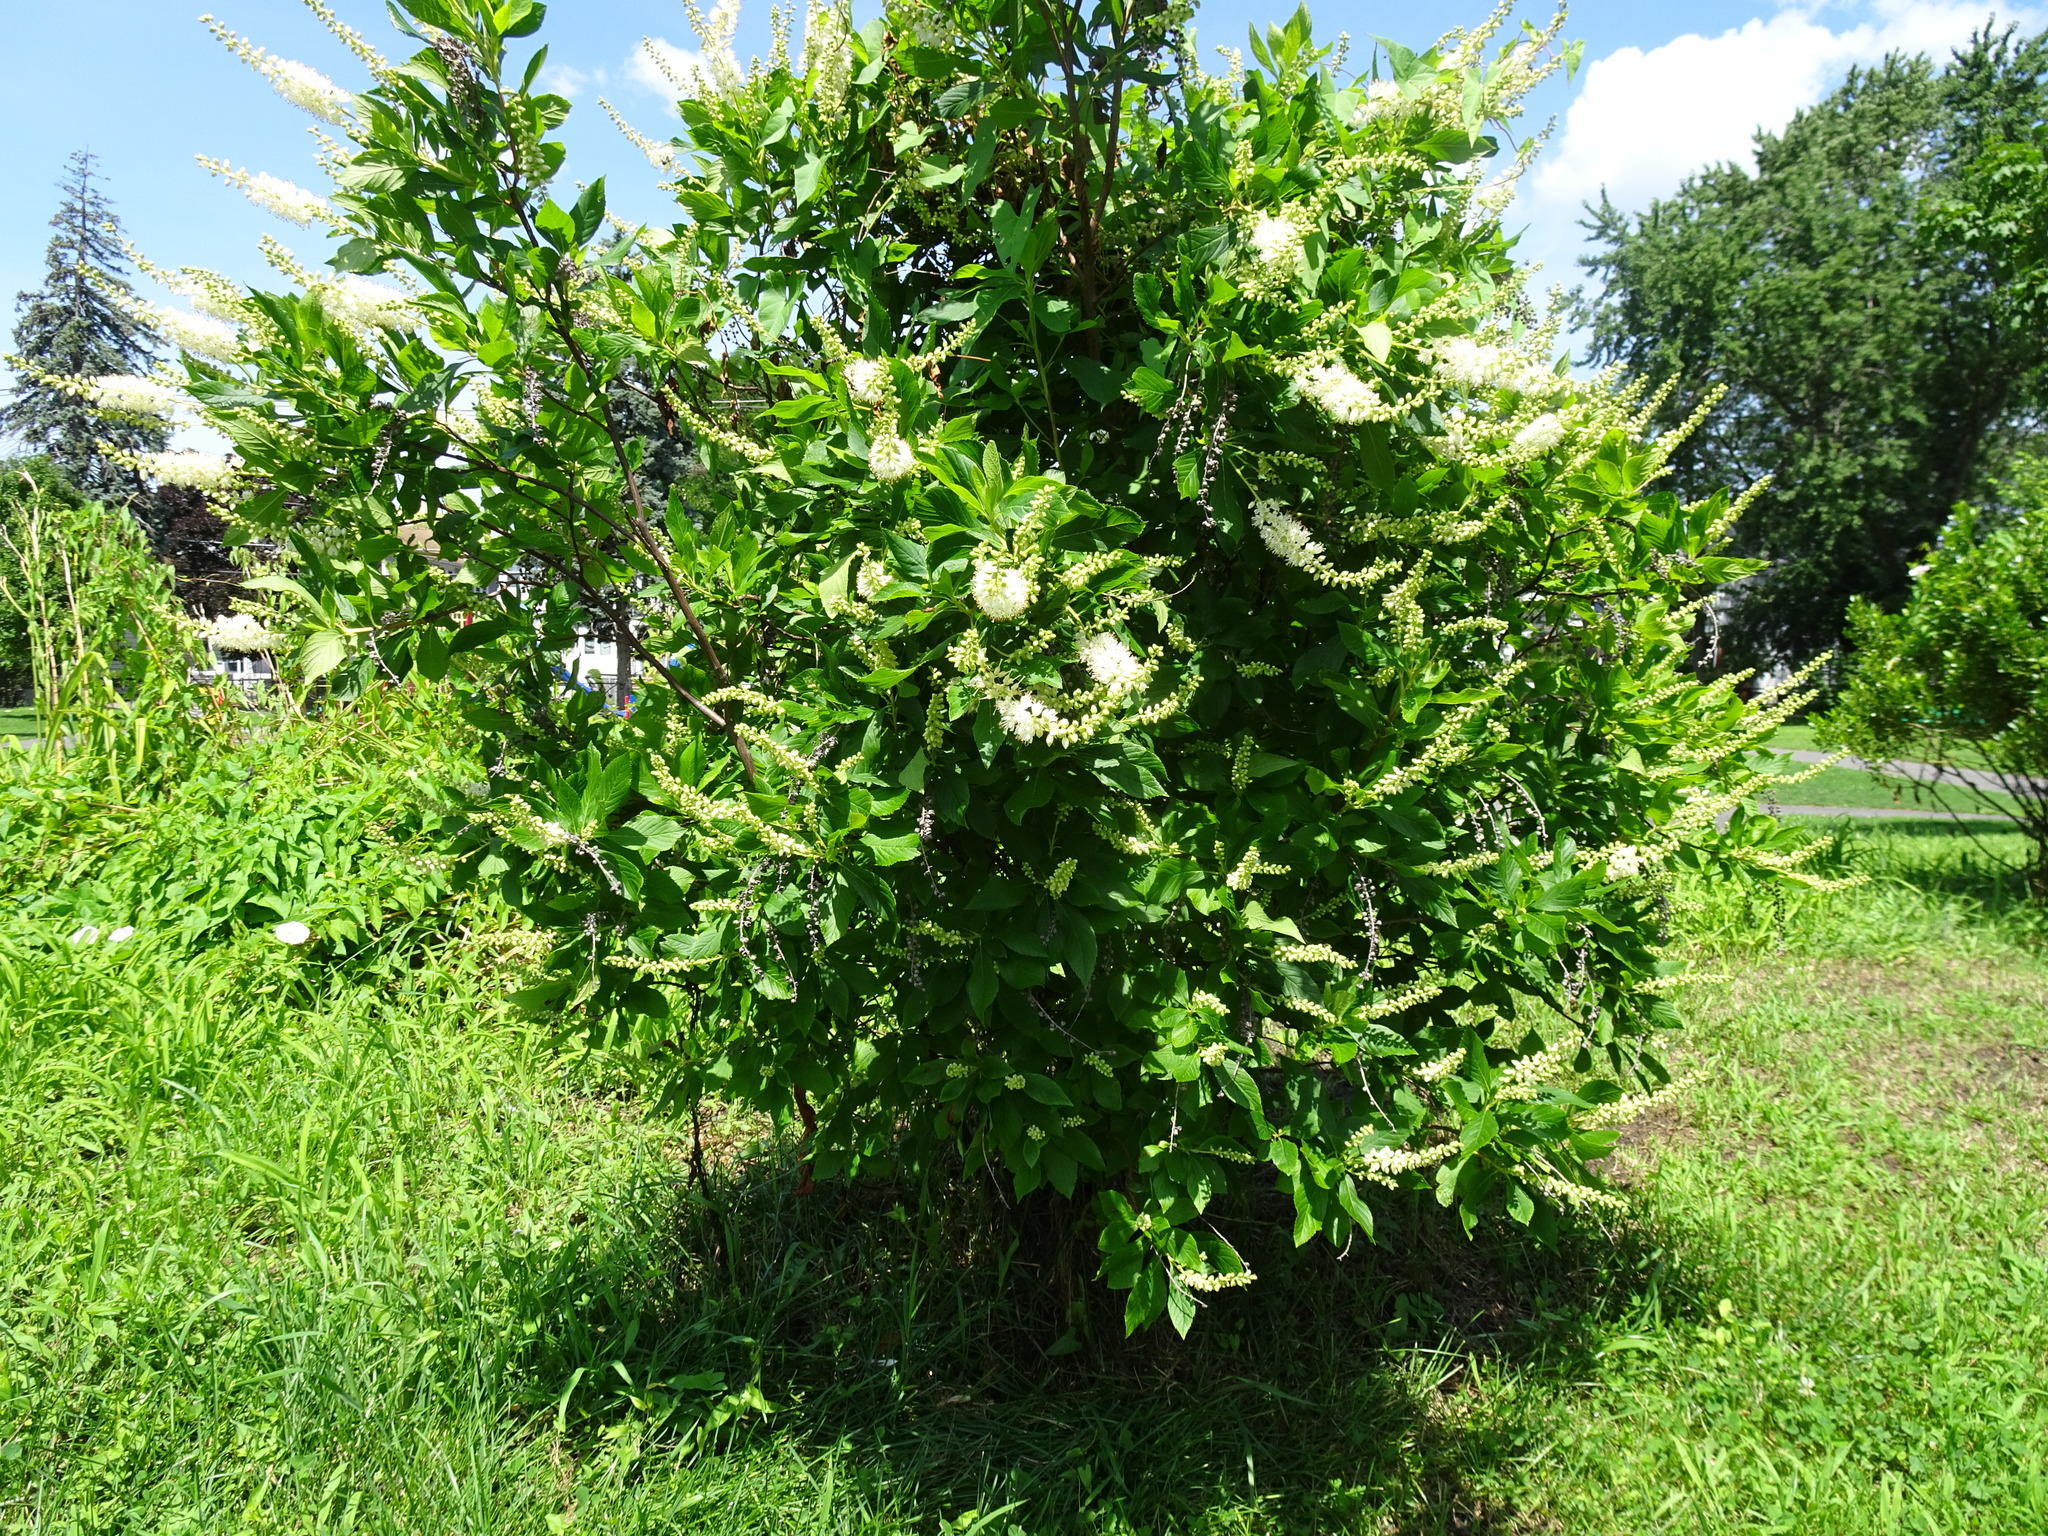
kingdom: Plantae
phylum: Tracheophyta
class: Magnoliopsida
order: Ericales
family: Clethraceae
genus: Clethra
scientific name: Clethra alnifolia
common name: Sweet pepperbush
